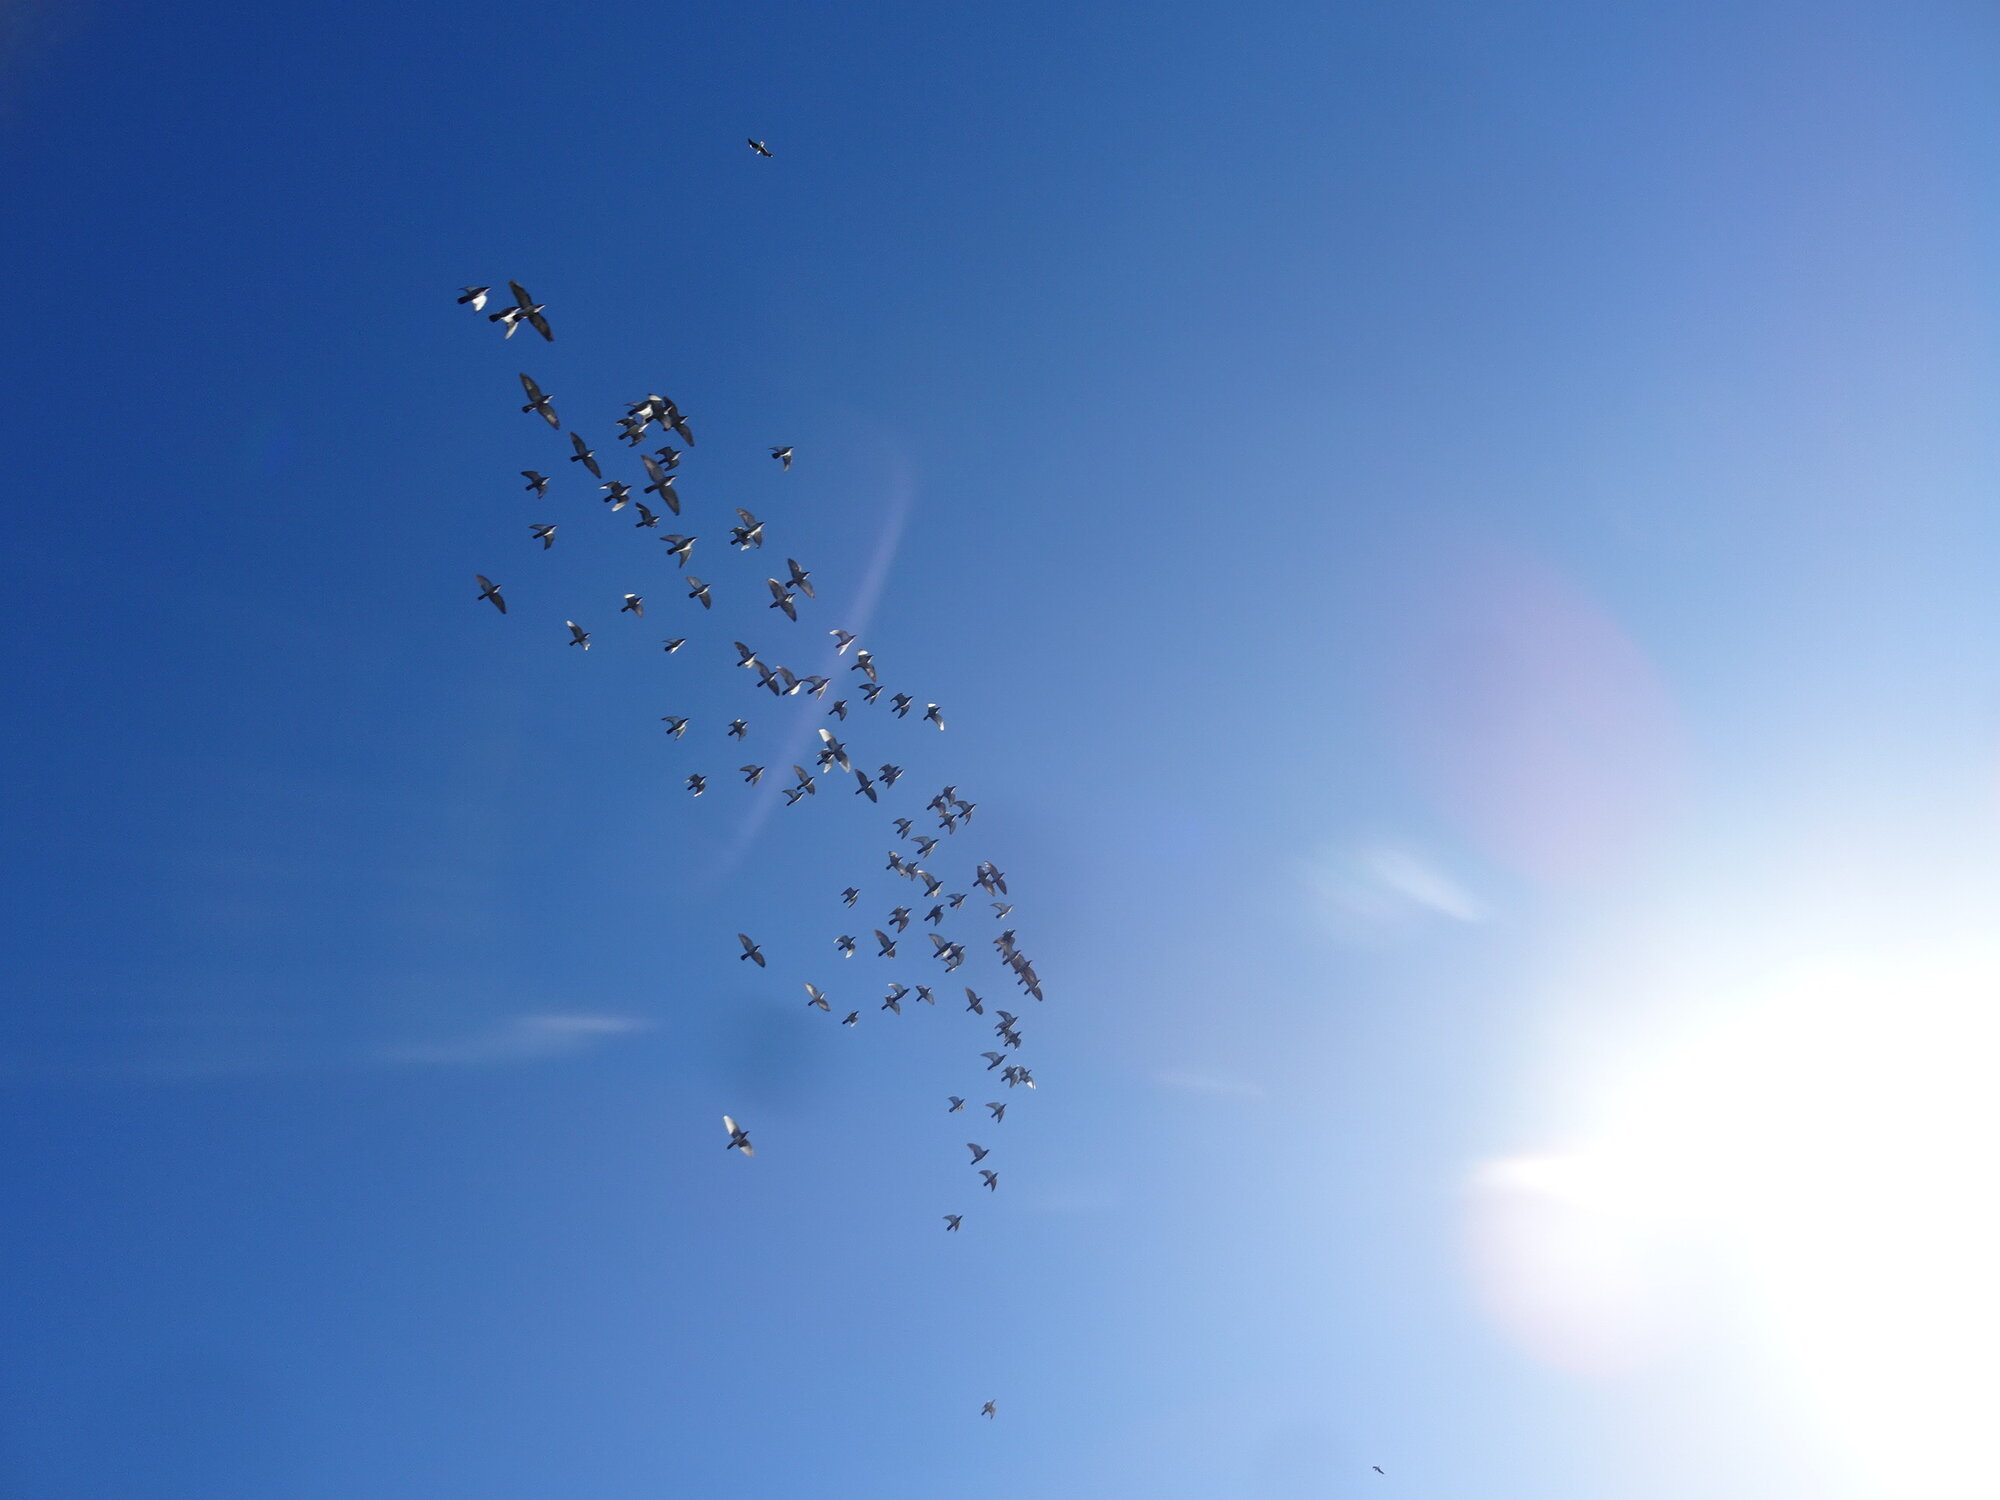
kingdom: Animalia
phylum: Chordata
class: Aves
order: Columbiformes
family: Columbidae
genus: Columba
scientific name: Columba livia
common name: Rock pigeon
